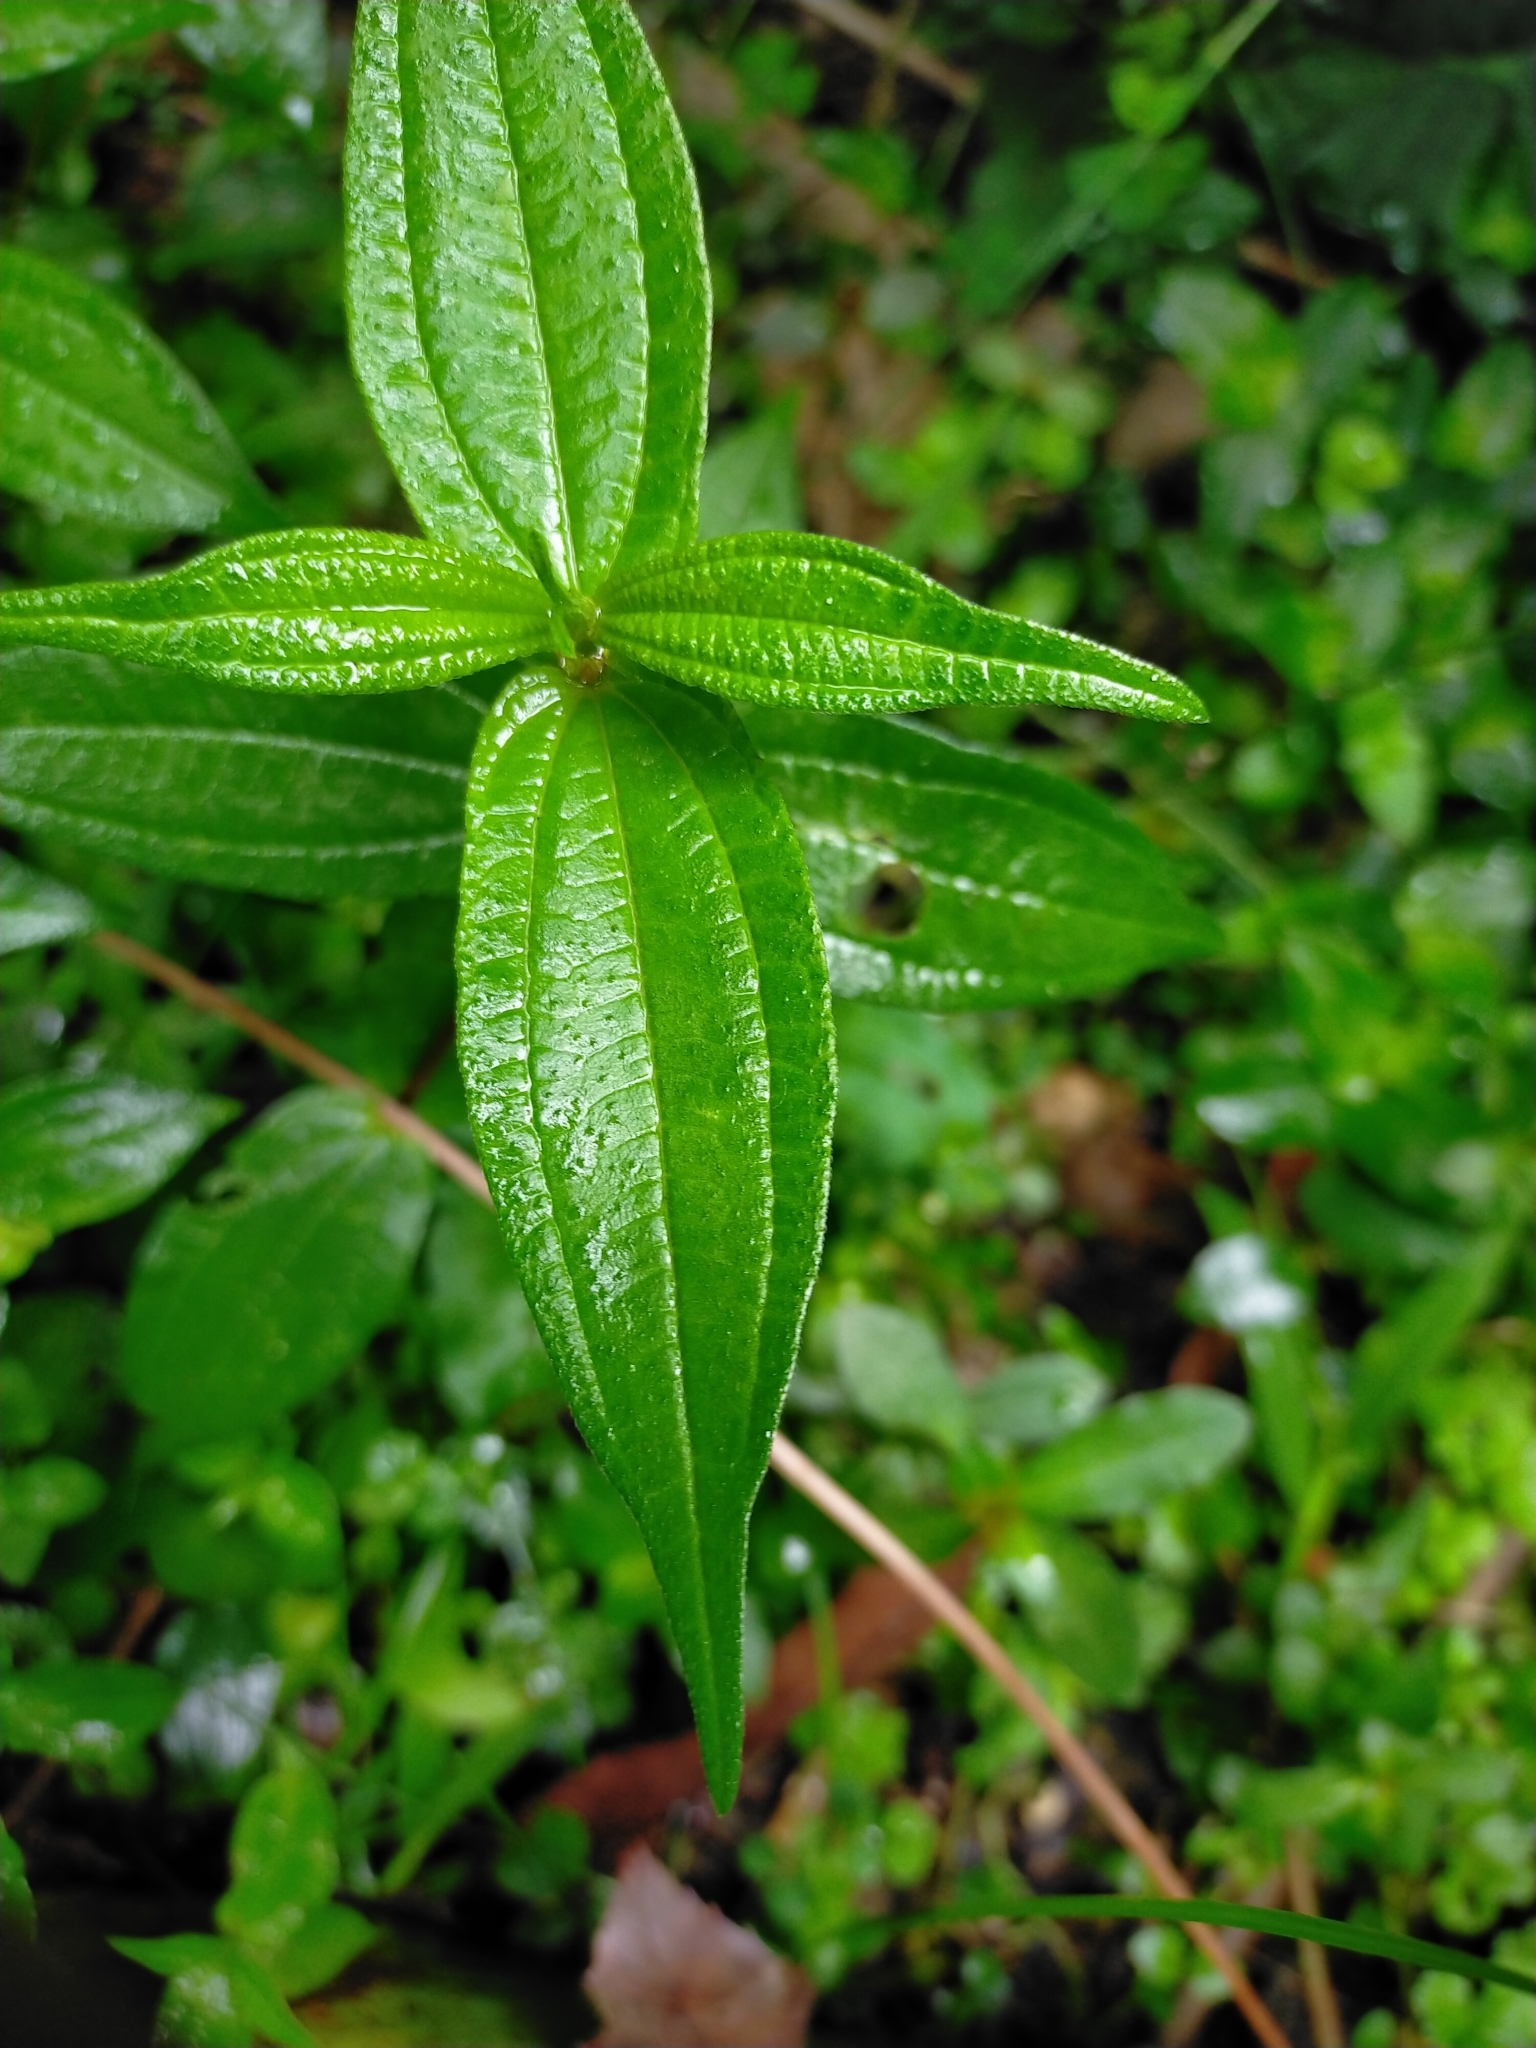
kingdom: Plantae
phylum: Tracheophyta
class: Magnoliopsida
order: Rosales
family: Urticaceae
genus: Gonostegia
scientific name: Gonostegia triandra
